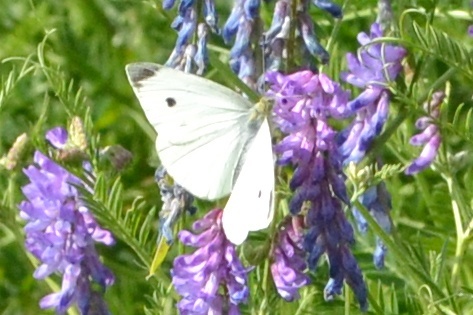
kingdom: Animalia
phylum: Arthropoda
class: Insecta
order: Lepidoptera
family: Pieridae
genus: Pieris
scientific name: Pieris rapae
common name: Small white
